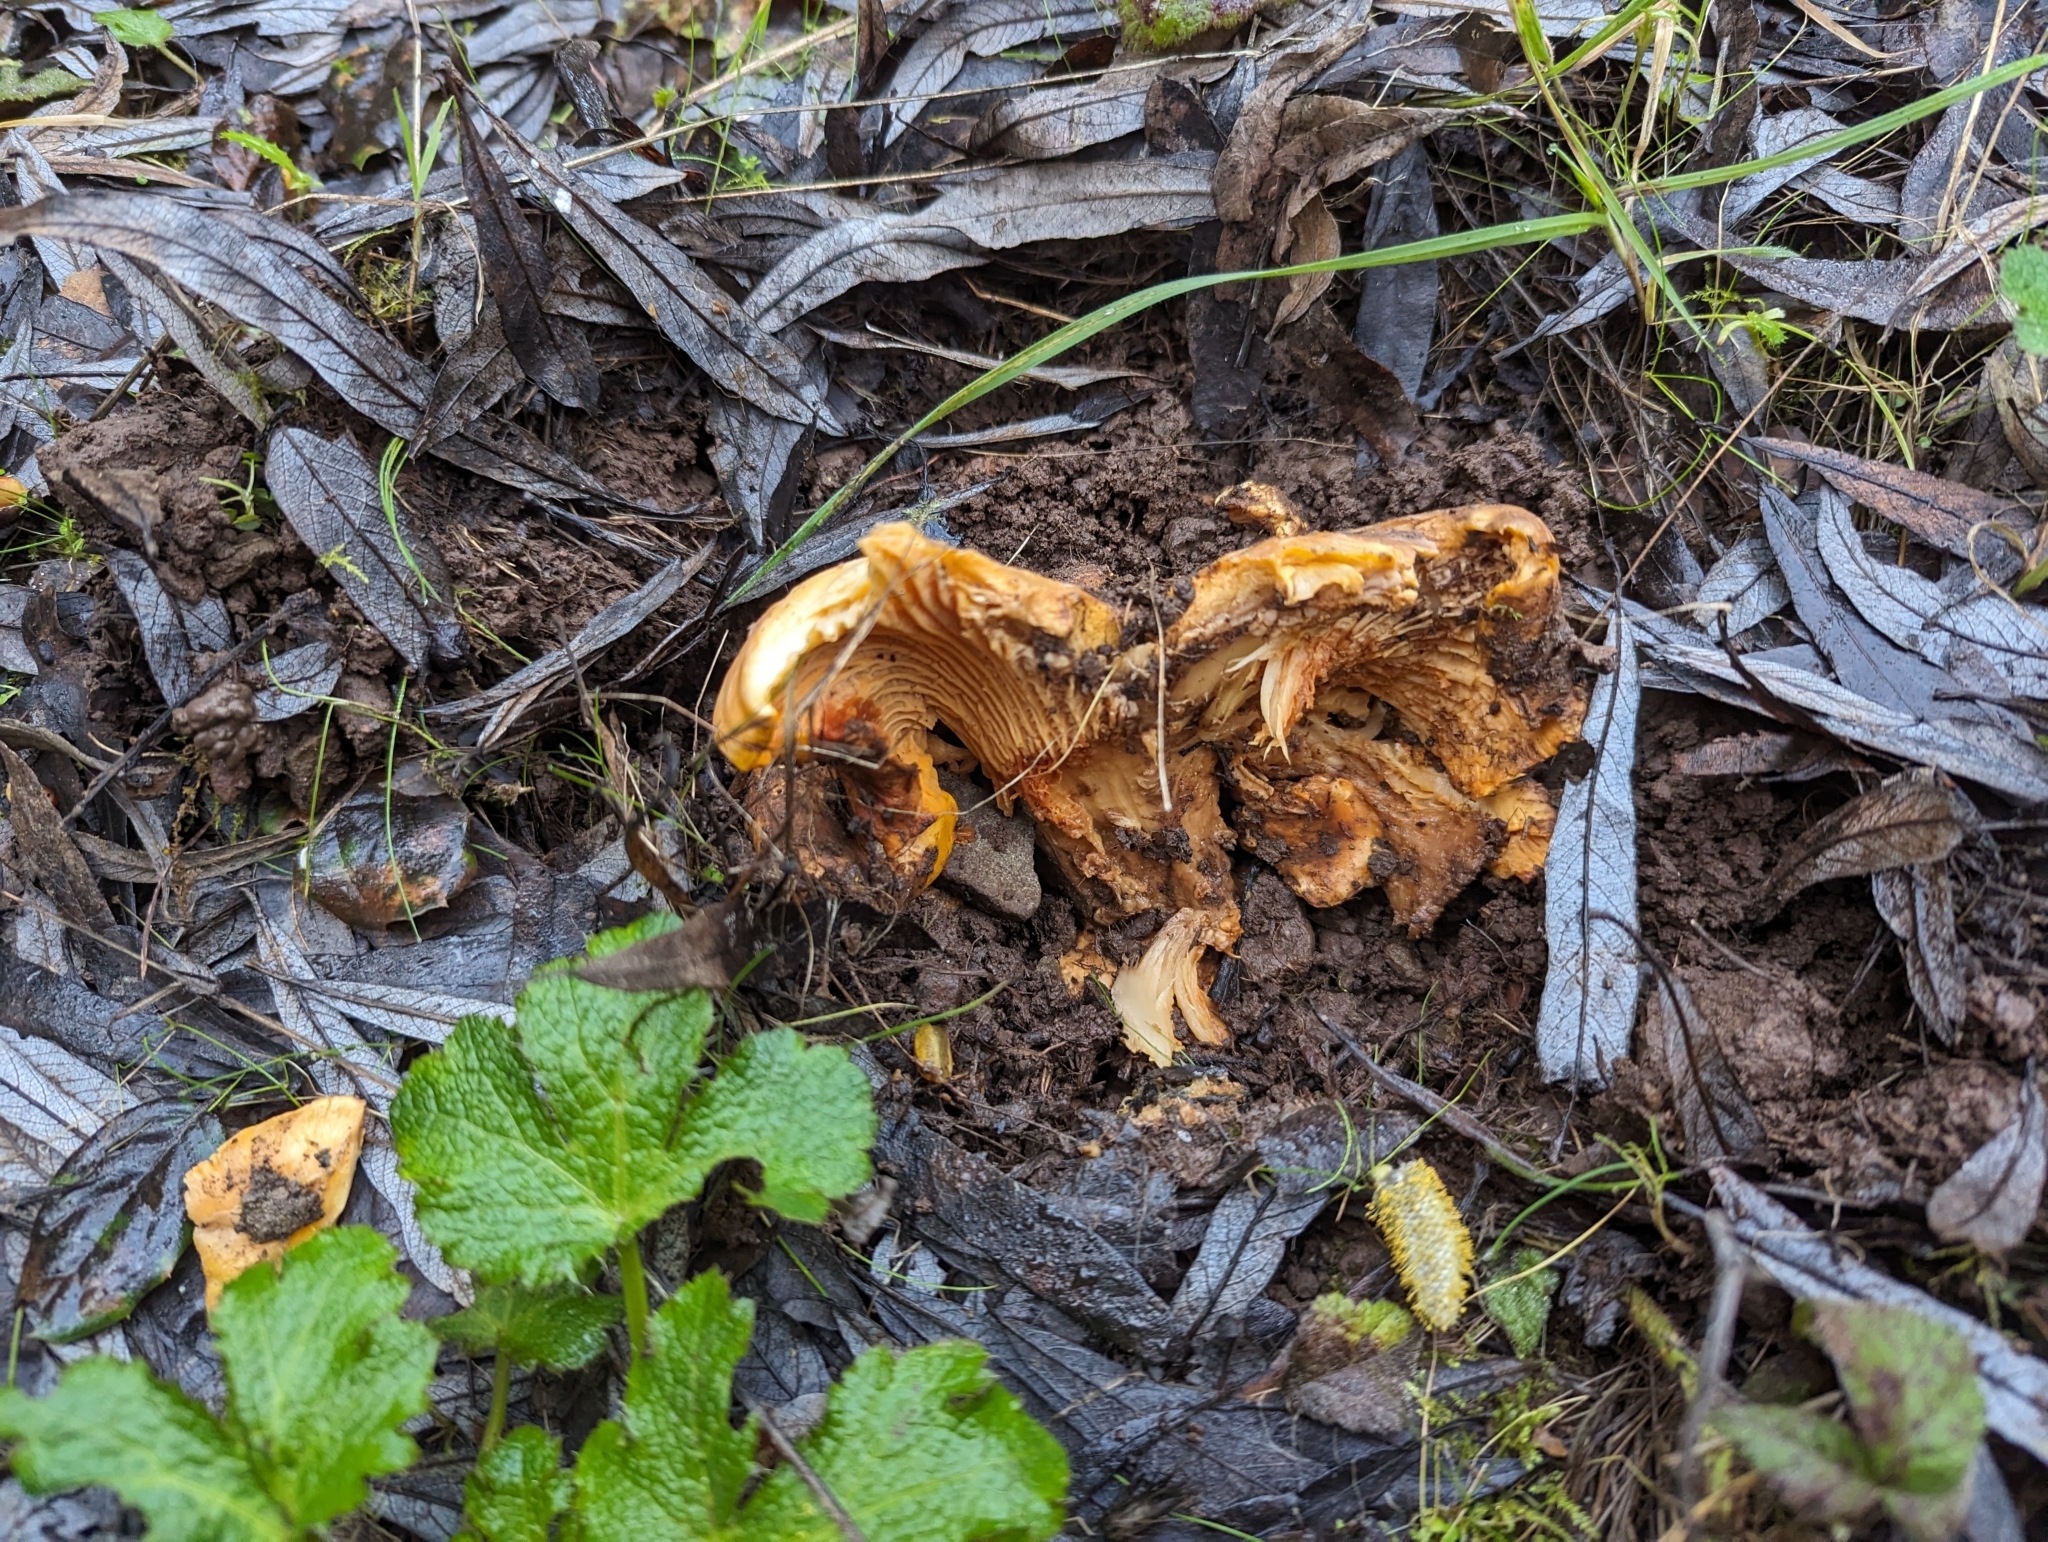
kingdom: Fungi
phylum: Basidiomycota
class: Agaricomycetes
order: Cantharellales
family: Hydnaceae
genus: Cantharellus
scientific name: Cantharellus californicus
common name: California golden chanterelle
